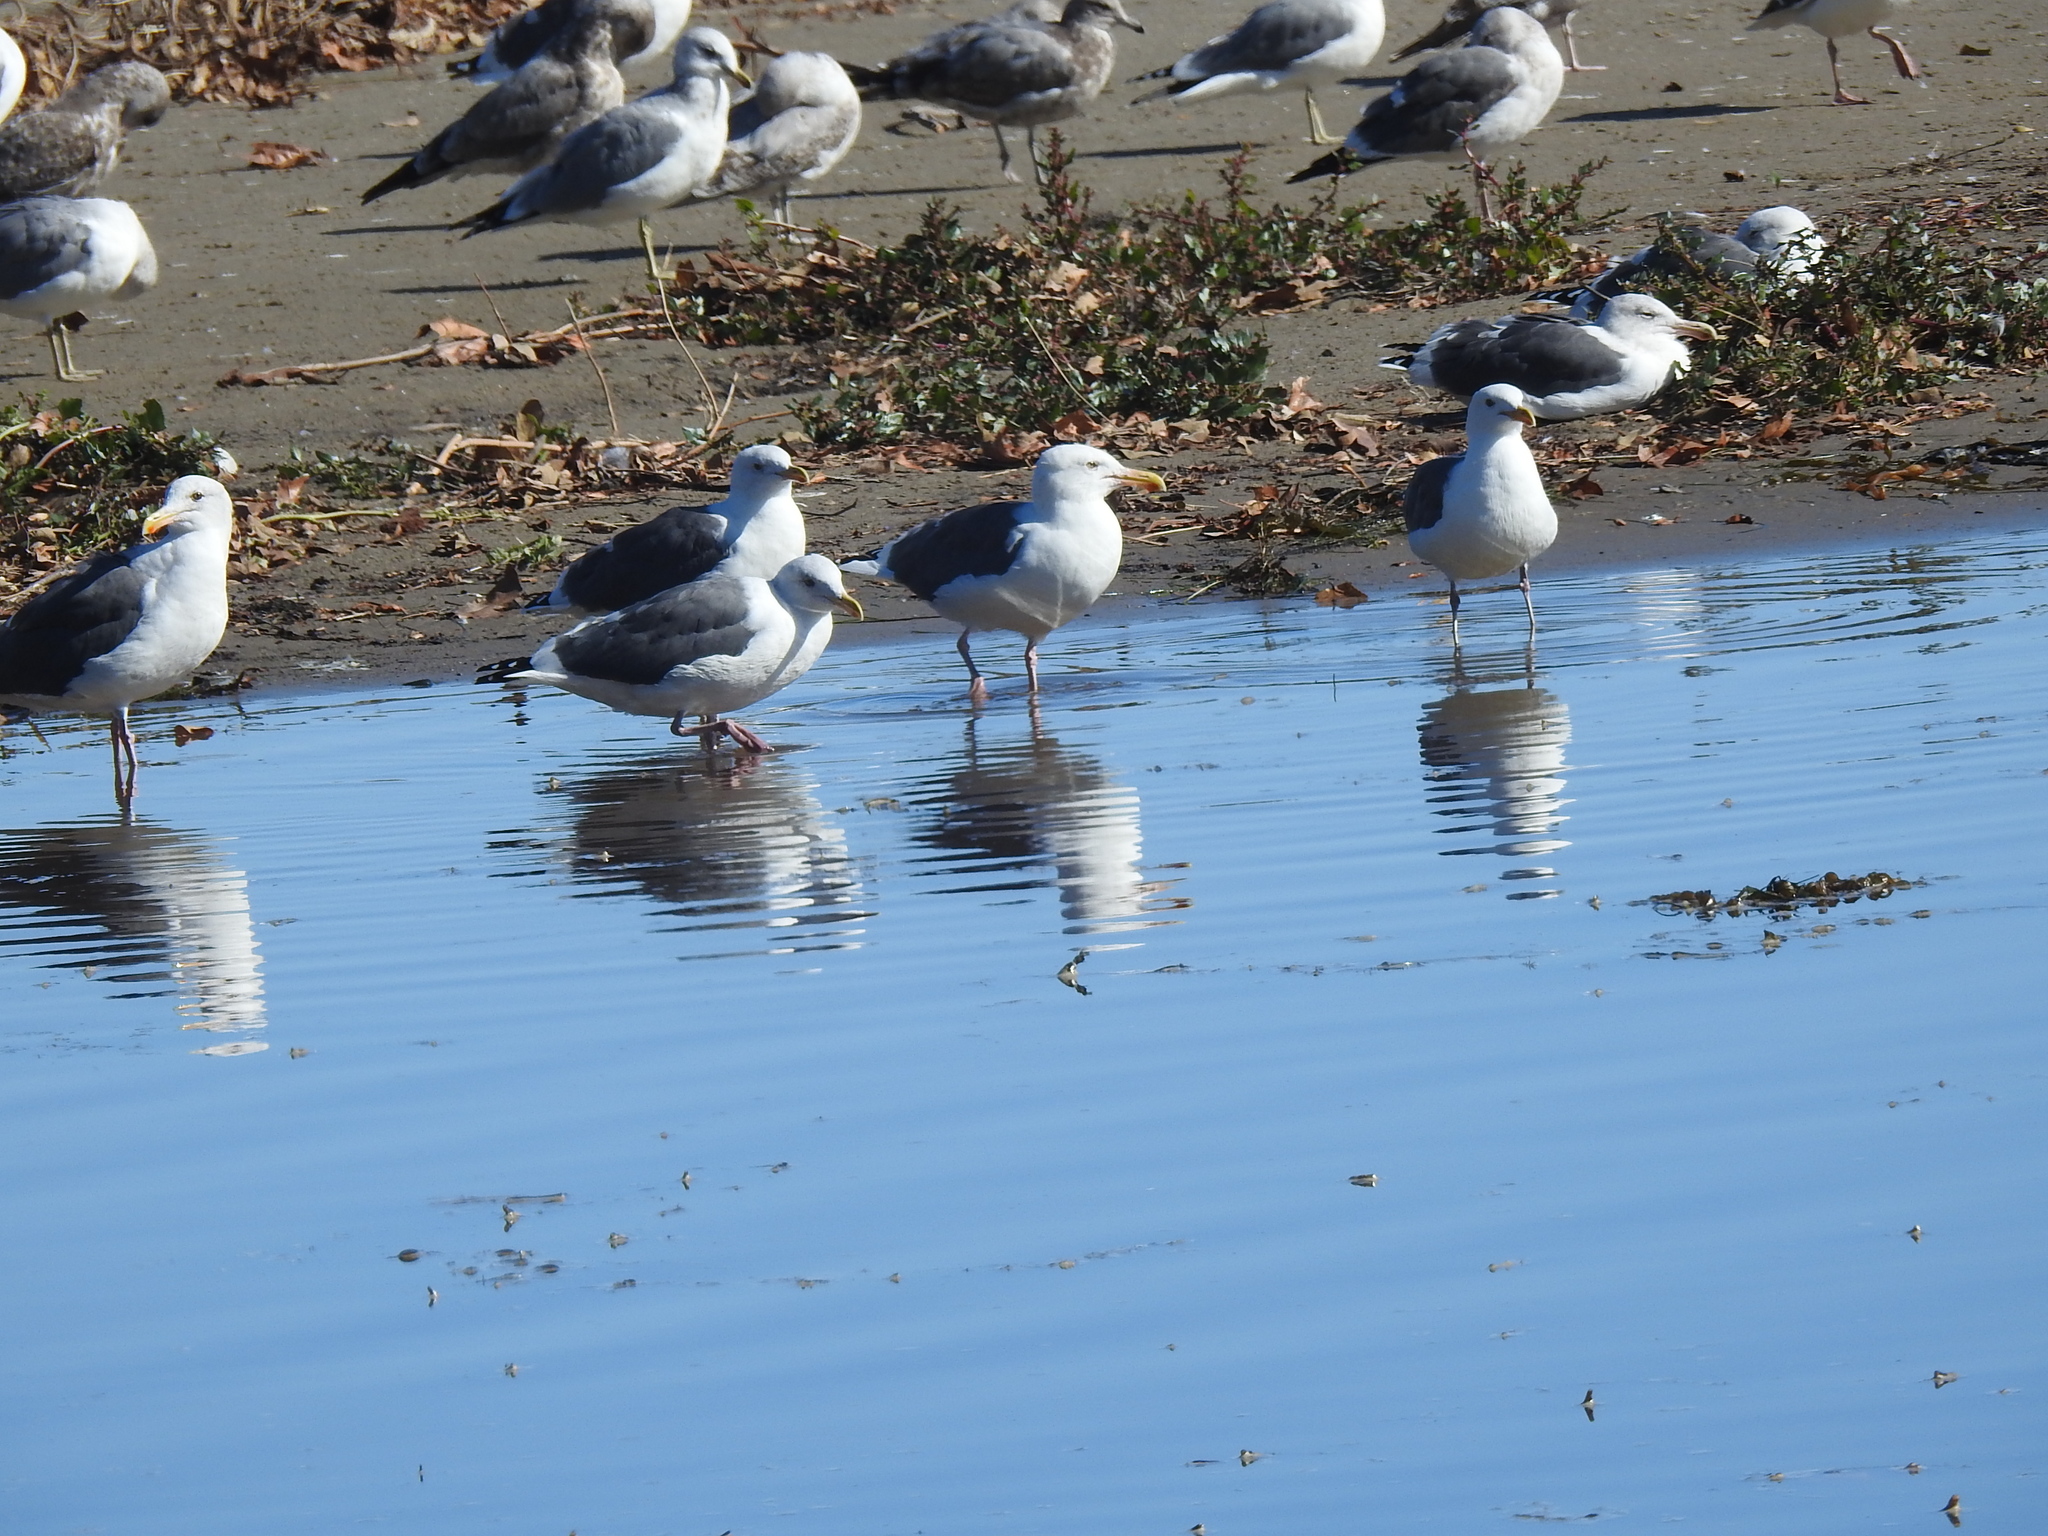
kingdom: Animalia
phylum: Chordata
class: Aves
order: Charadriiformes
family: Laridae
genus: Larus
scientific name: Larus occidentalis
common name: Western gull
